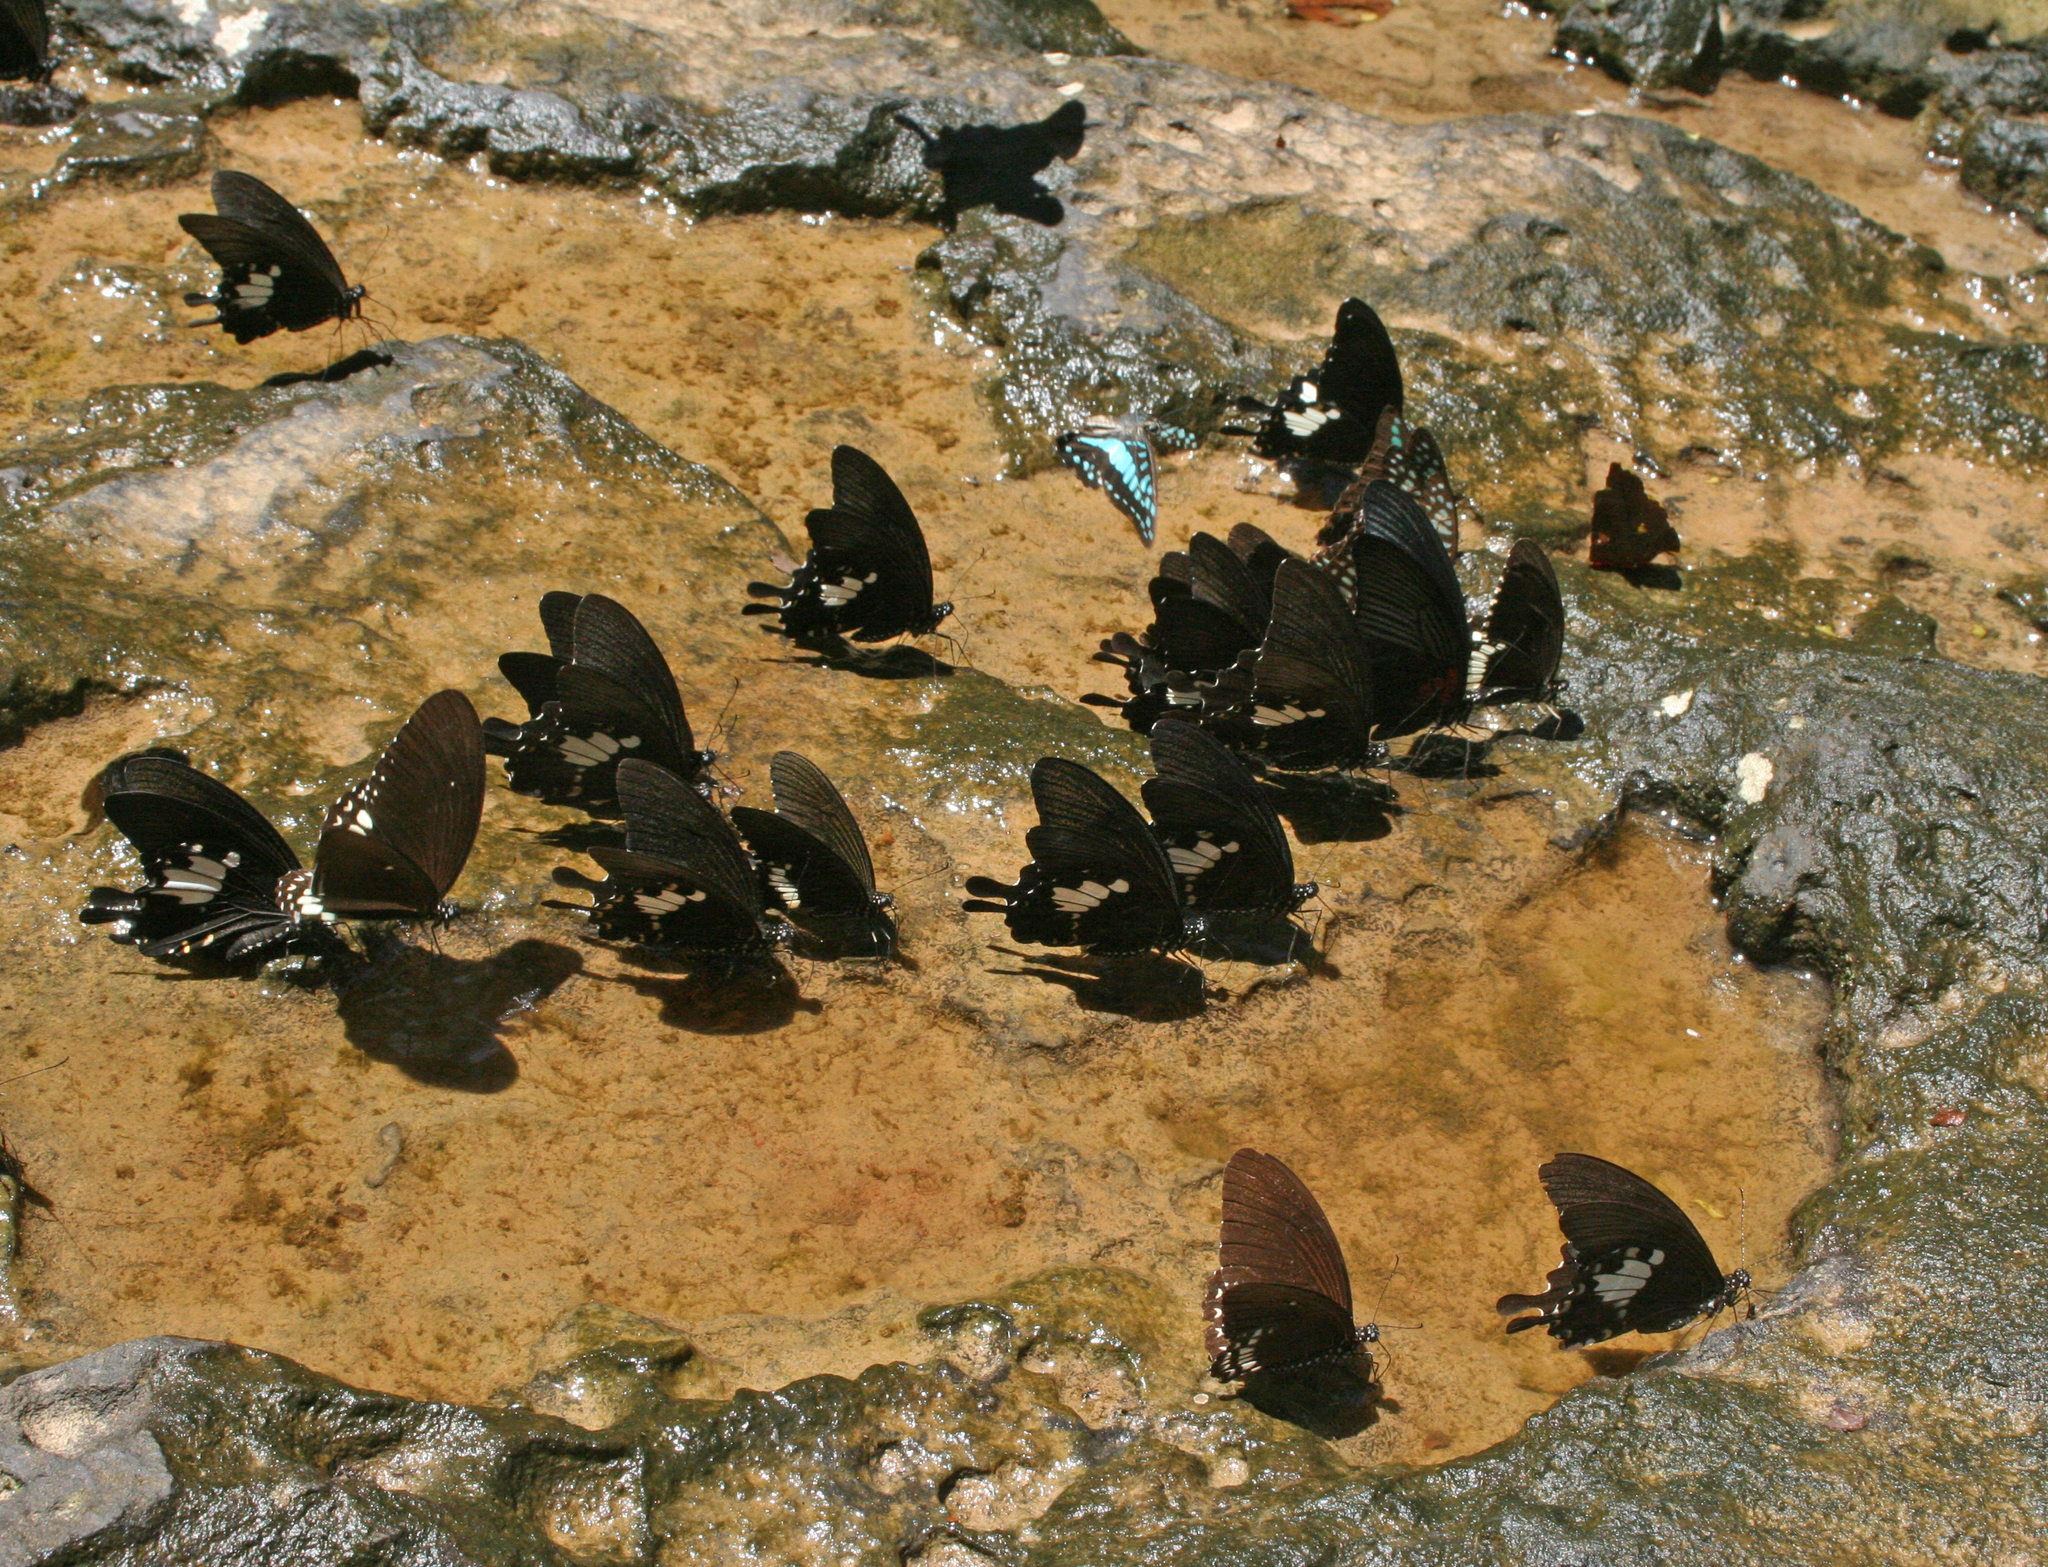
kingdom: Animalia
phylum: Arthropoda
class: Insecta
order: Lepidoptera
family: Papilionidae
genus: Papilio
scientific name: Papilio castor
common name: Common raven
